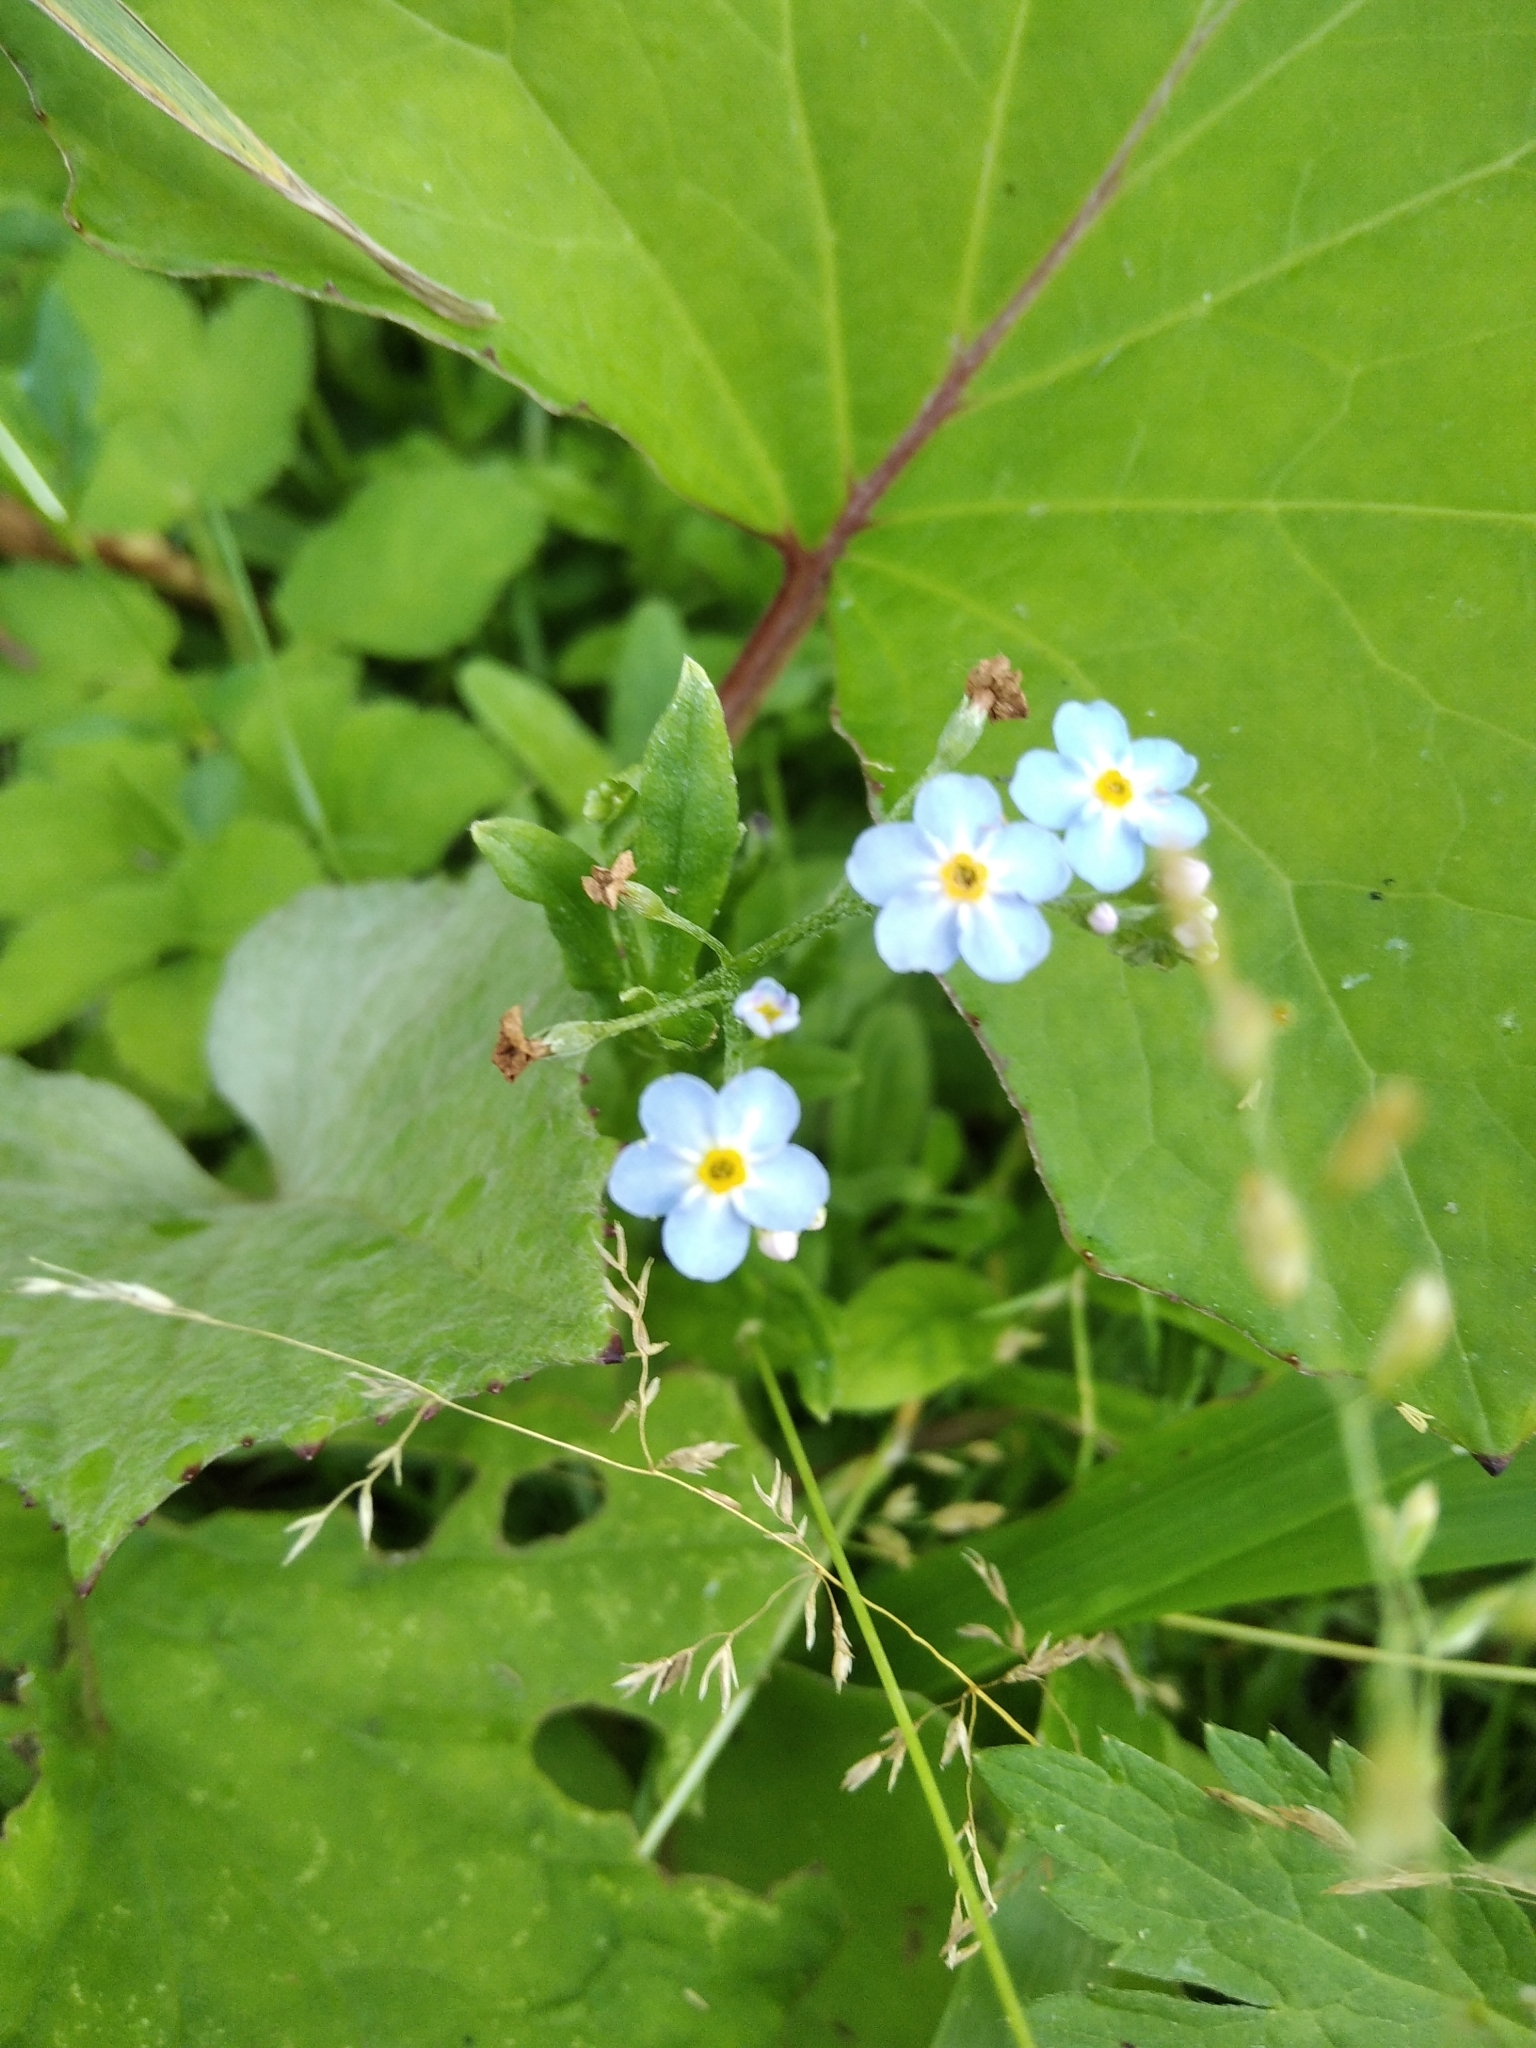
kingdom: Plantae
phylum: Tracheophyta
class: Magnoliopsida
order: Boraginales
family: Boraginaceae
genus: Myosotis
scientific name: Myosotis scorpioides
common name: Water forget-me-not
